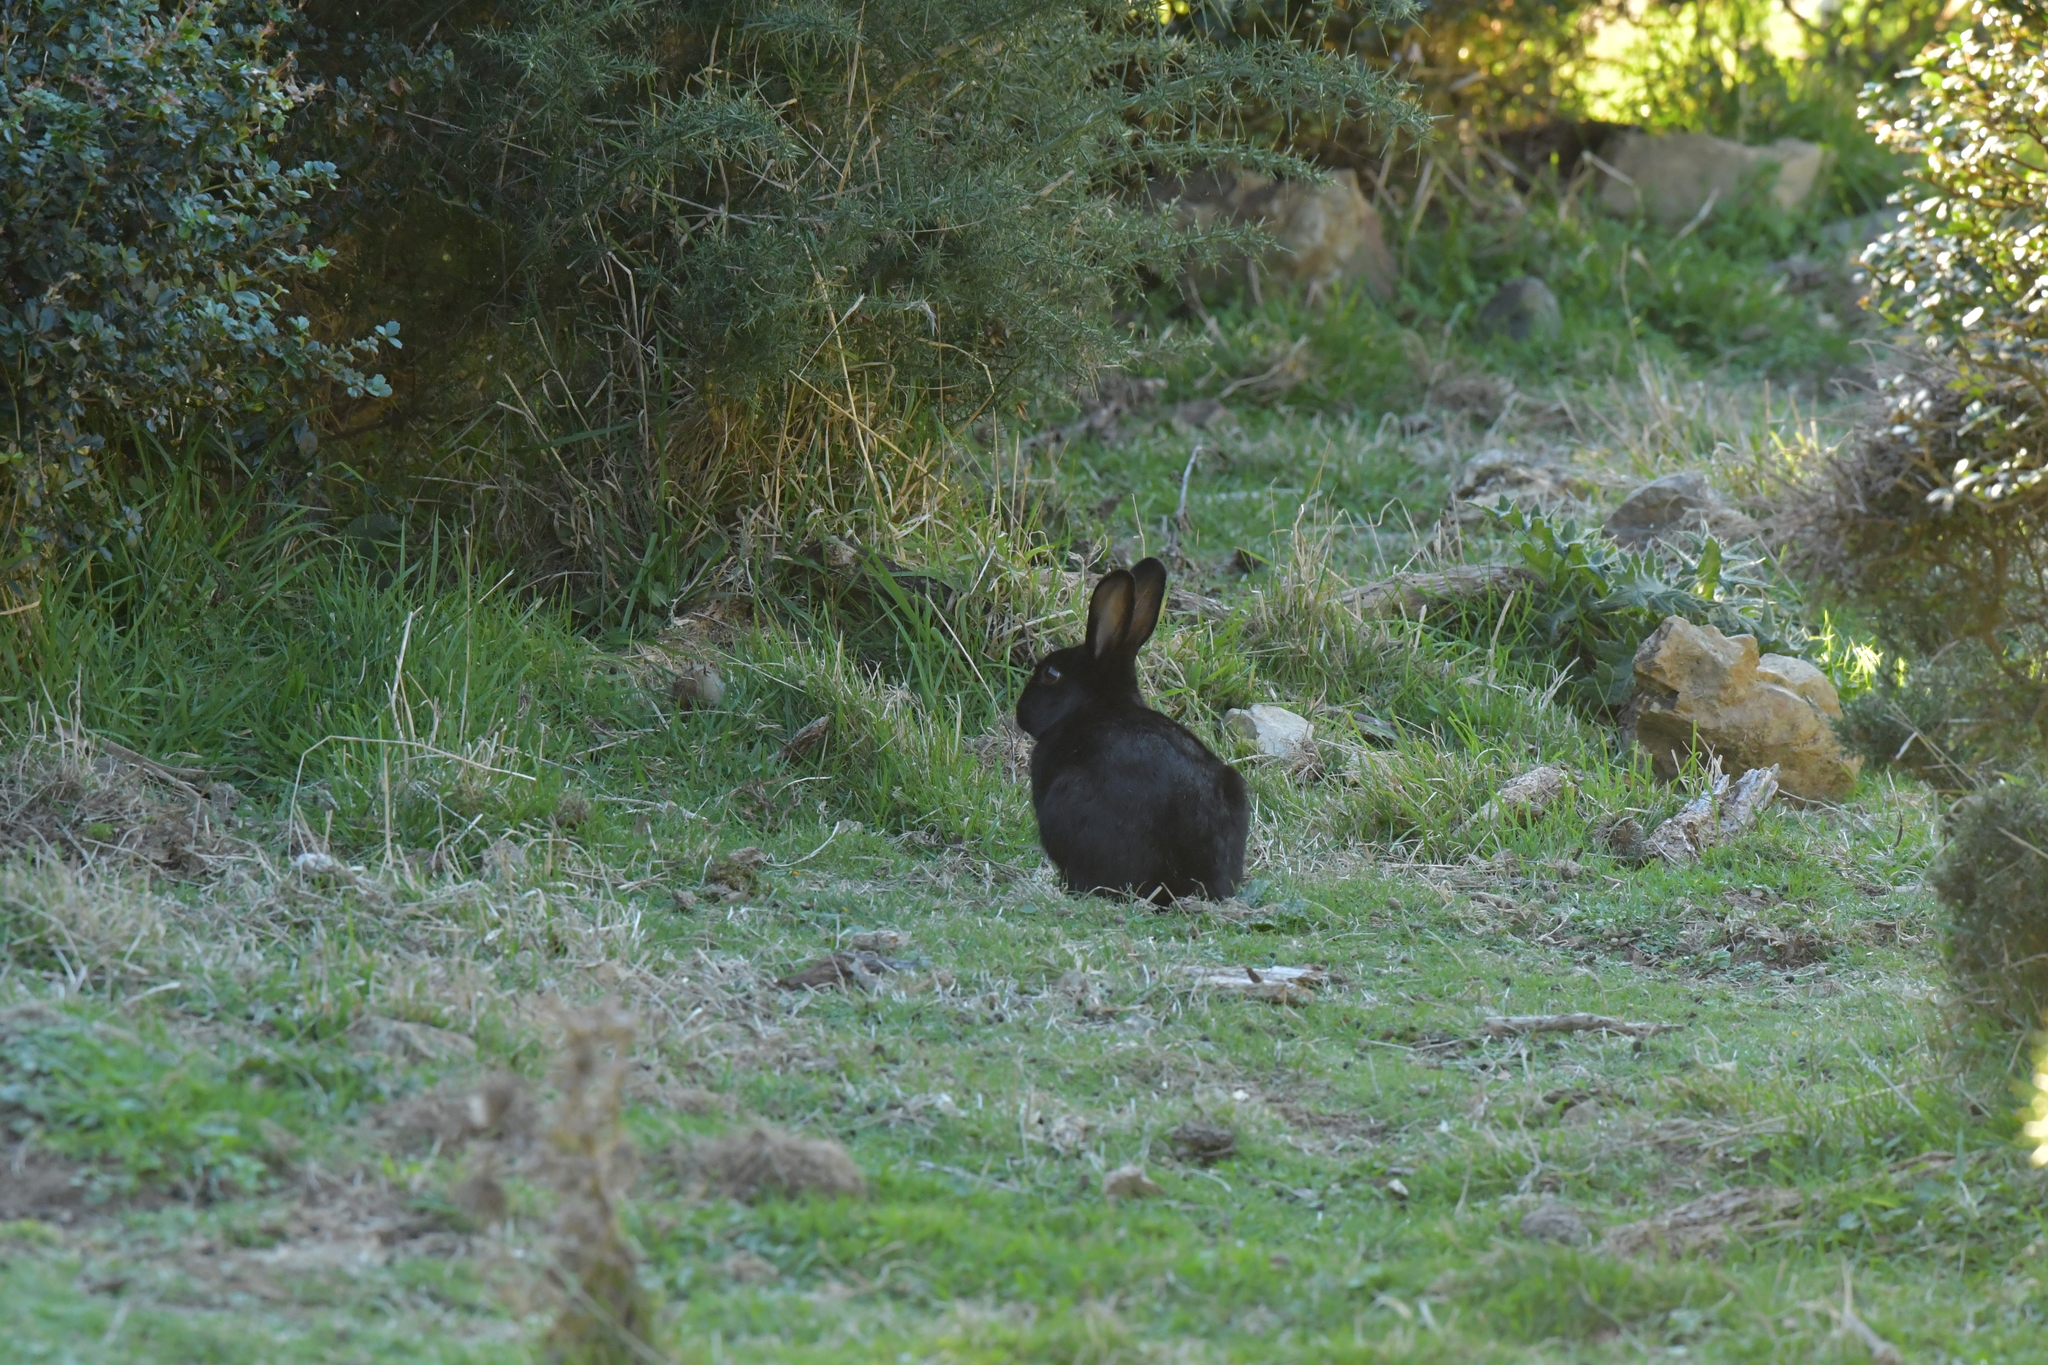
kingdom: Animalia
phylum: Chordata
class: Mammalia
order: Lagomorpha
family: Leporidae
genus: Oryctolagus
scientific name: Oryctolagus cuniculus
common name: European rabbit
